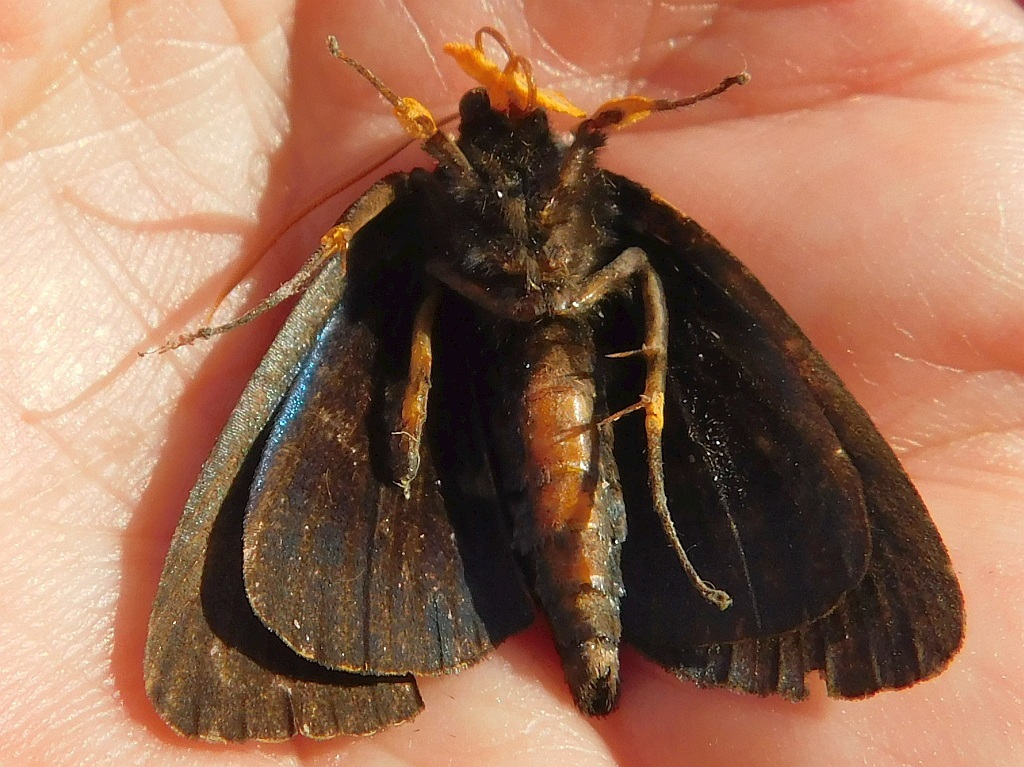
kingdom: Animalia
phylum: Arthropoda
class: Insecta
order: Lepidoptera
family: Erebidae
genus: Egybolis
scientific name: Egybolis vaillantina
